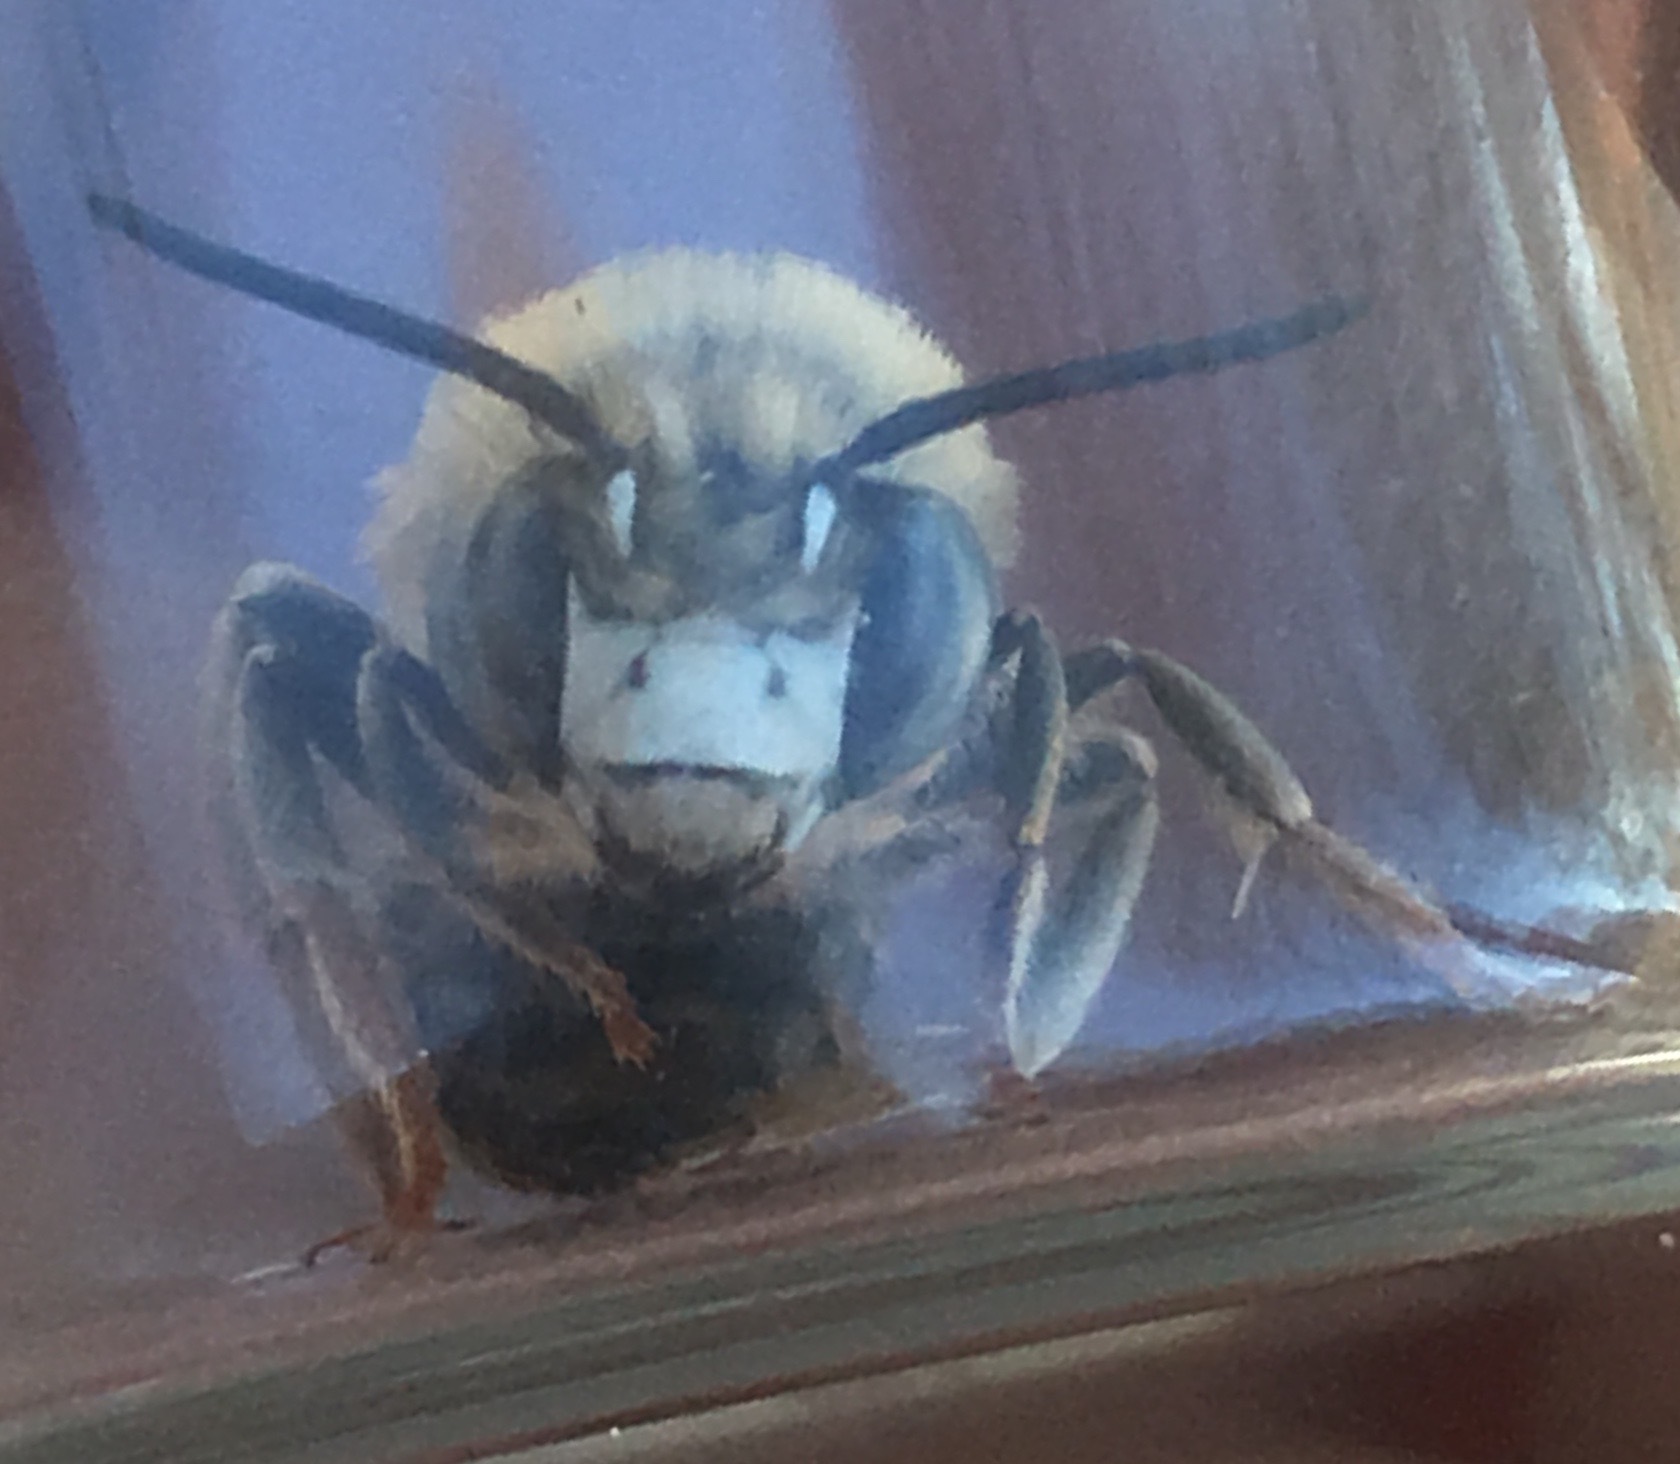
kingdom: Animalia
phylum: Arthropoda
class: Insecta
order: Hymenoptera
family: Apidae
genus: Anthophora
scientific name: Anthophora urbana
